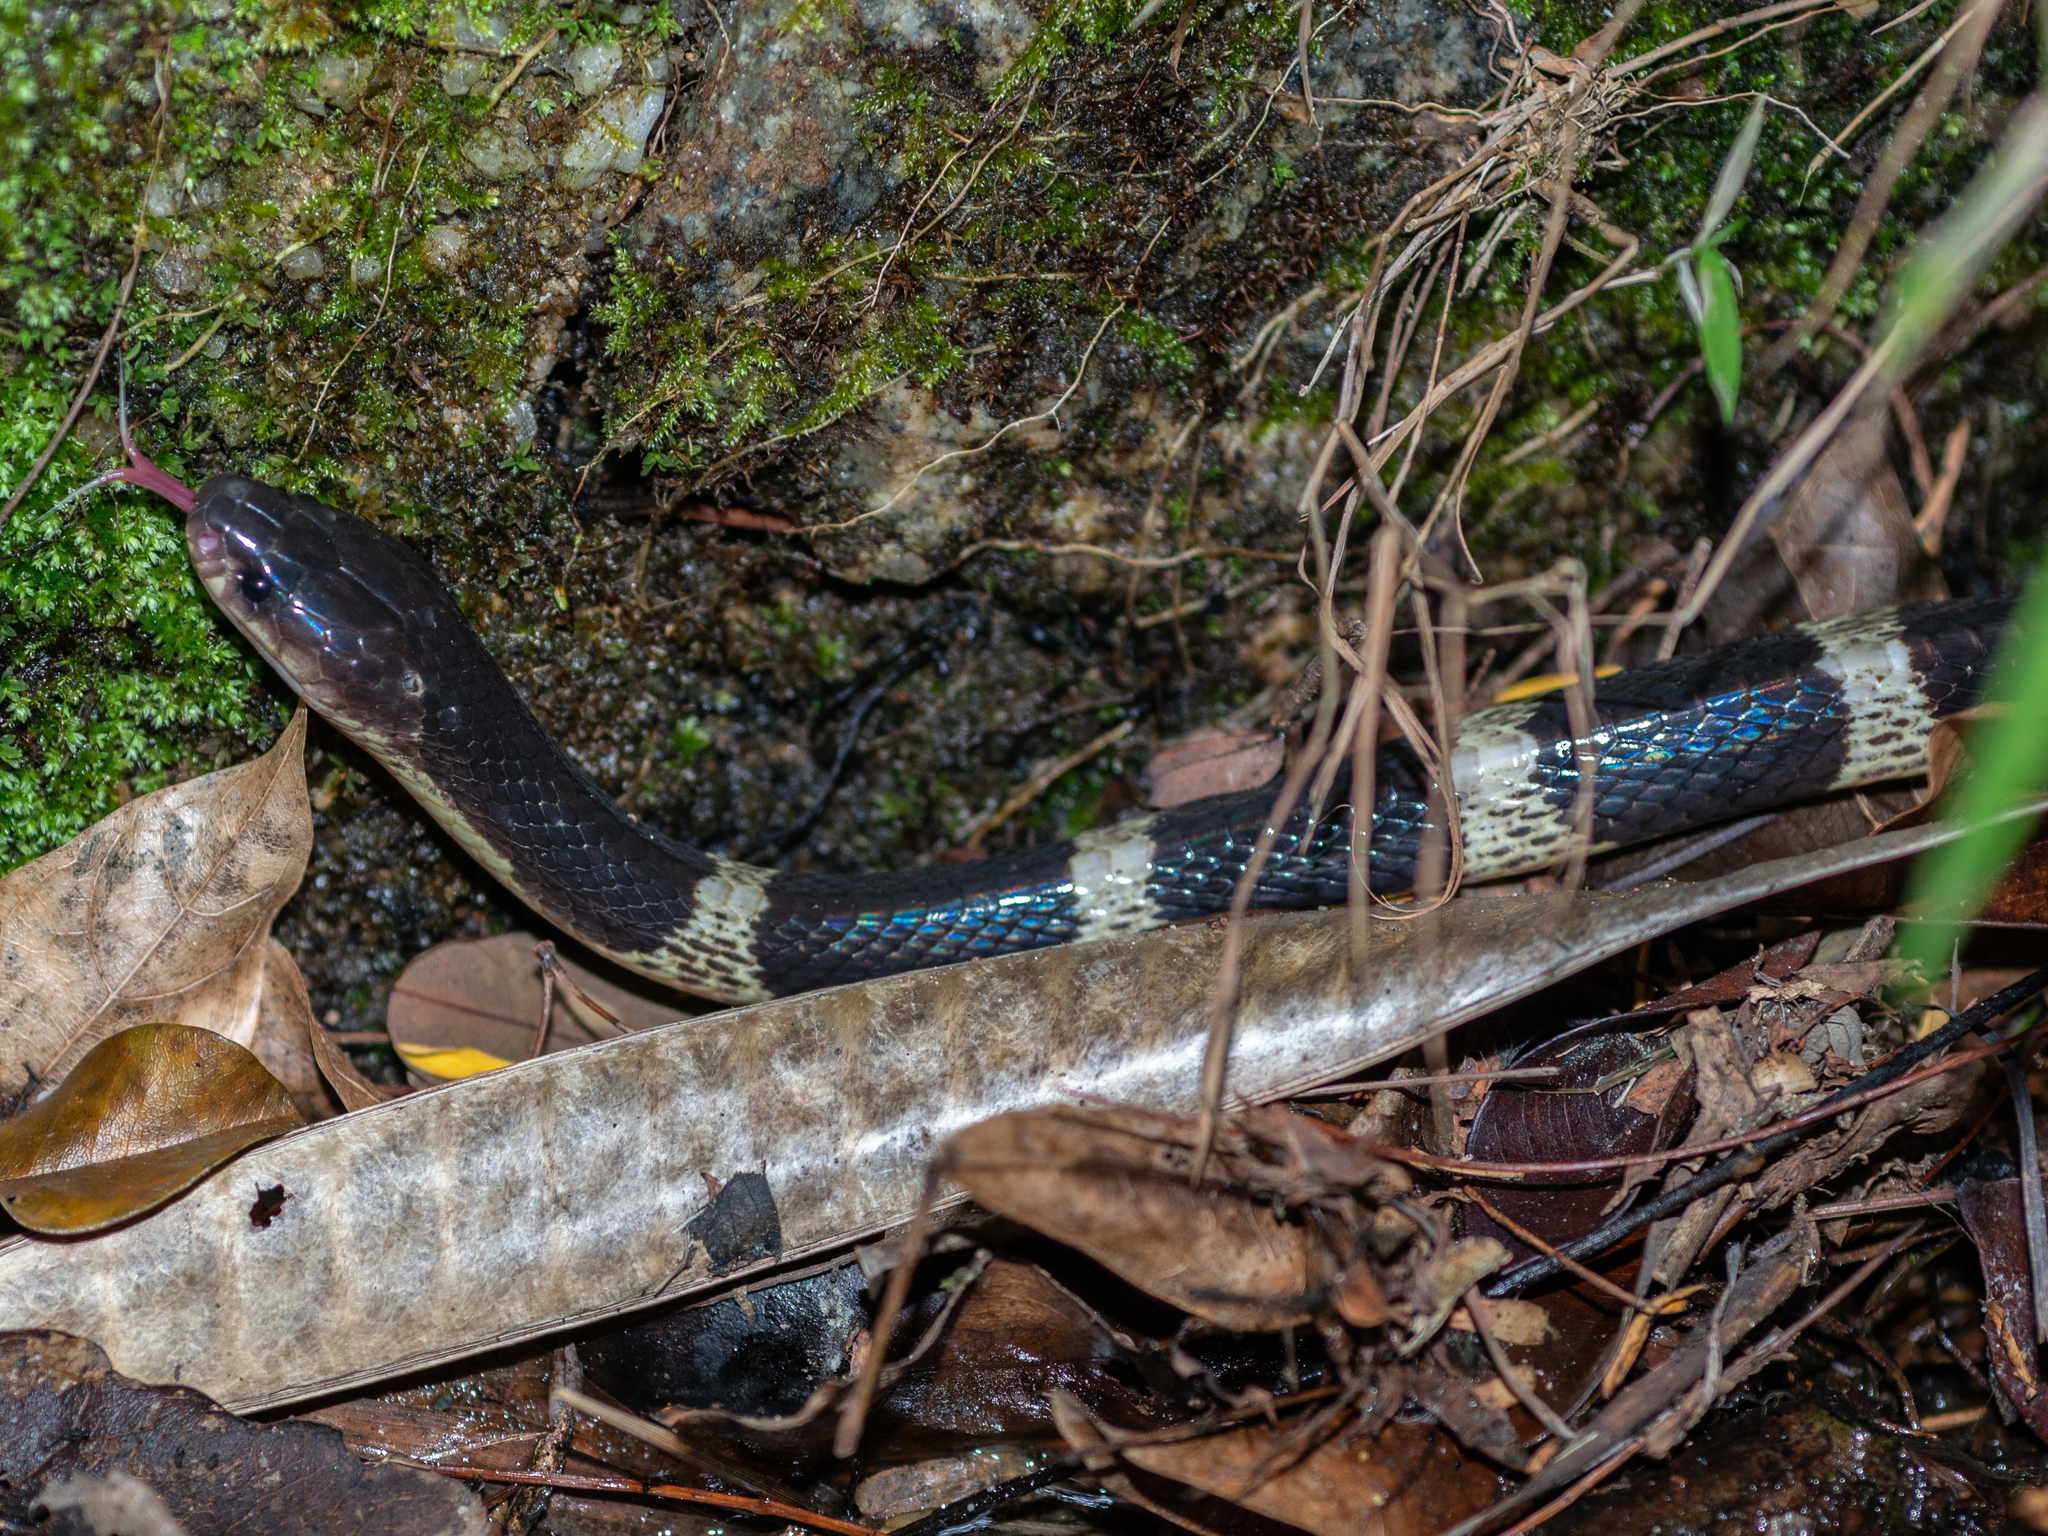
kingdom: Animalia
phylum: Chordata
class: Squamata
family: Elapidae
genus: Bungarus
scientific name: Bungarus multicinctus
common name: Many-banded krait
